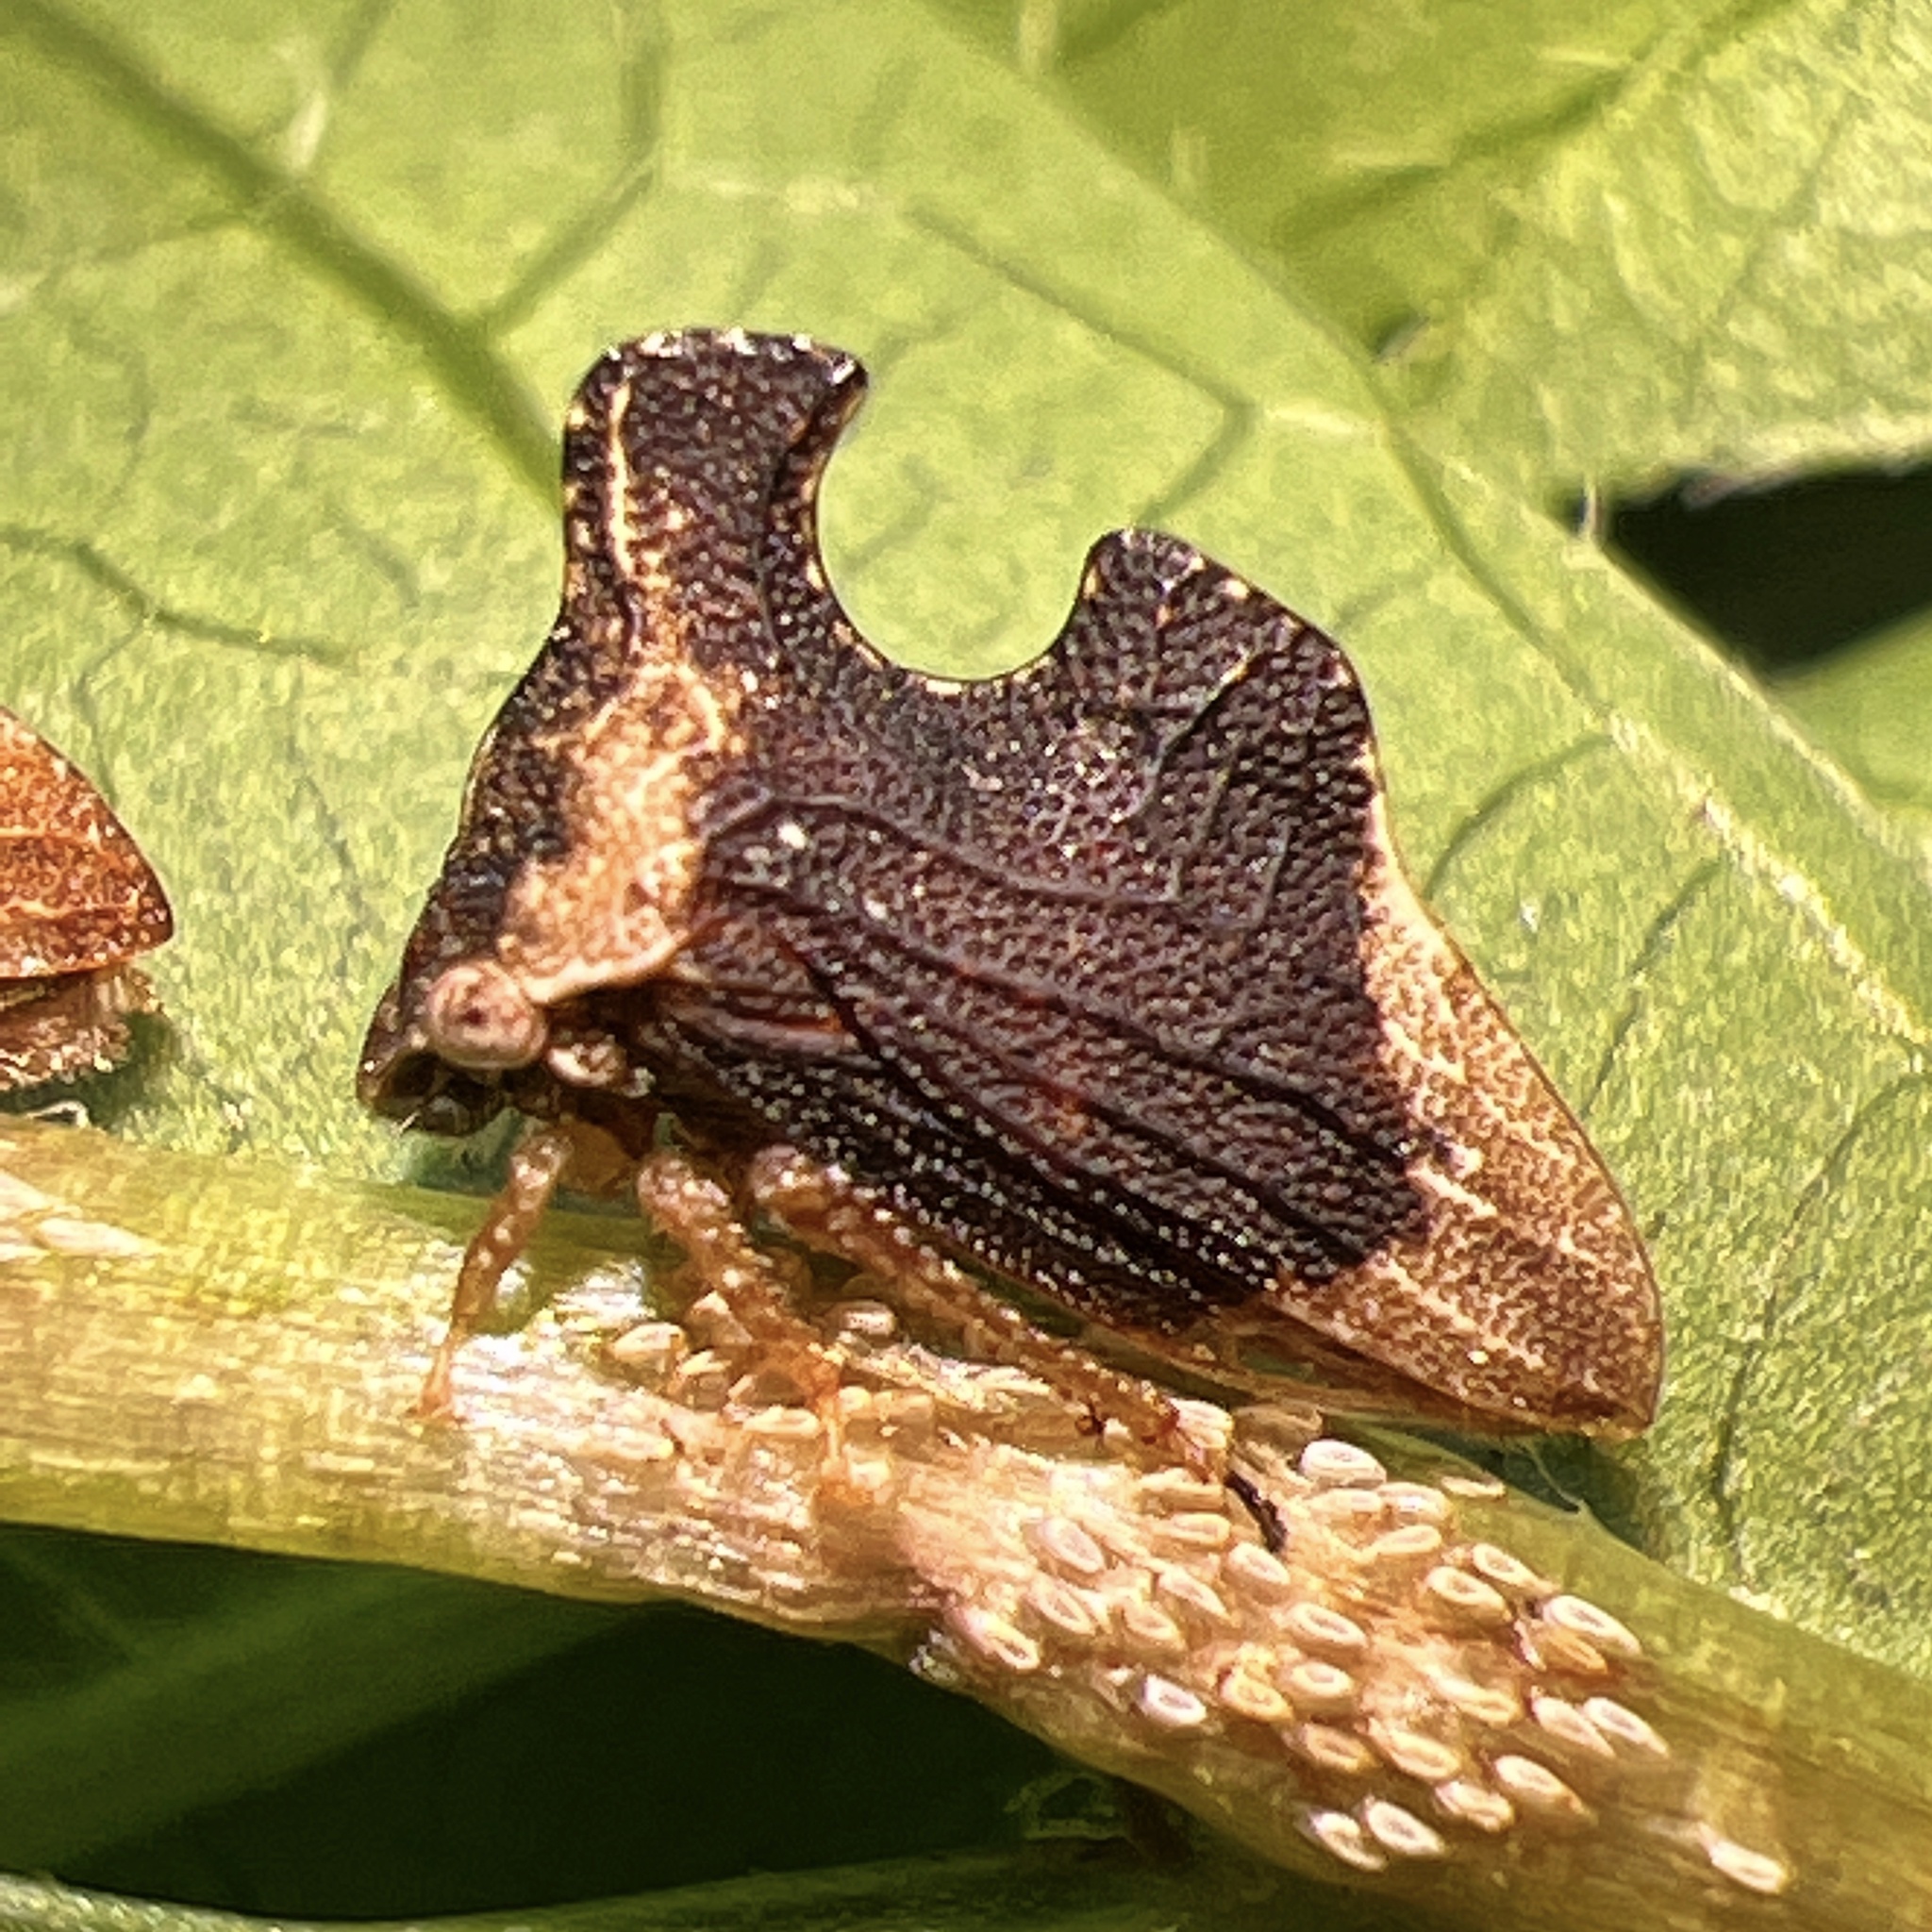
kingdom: Animalia
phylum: Arthropoda
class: Insecta
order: Hemiptera
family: Membracidae
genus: Entylia
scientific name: Entylia carinata
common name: Keeled treehopper
